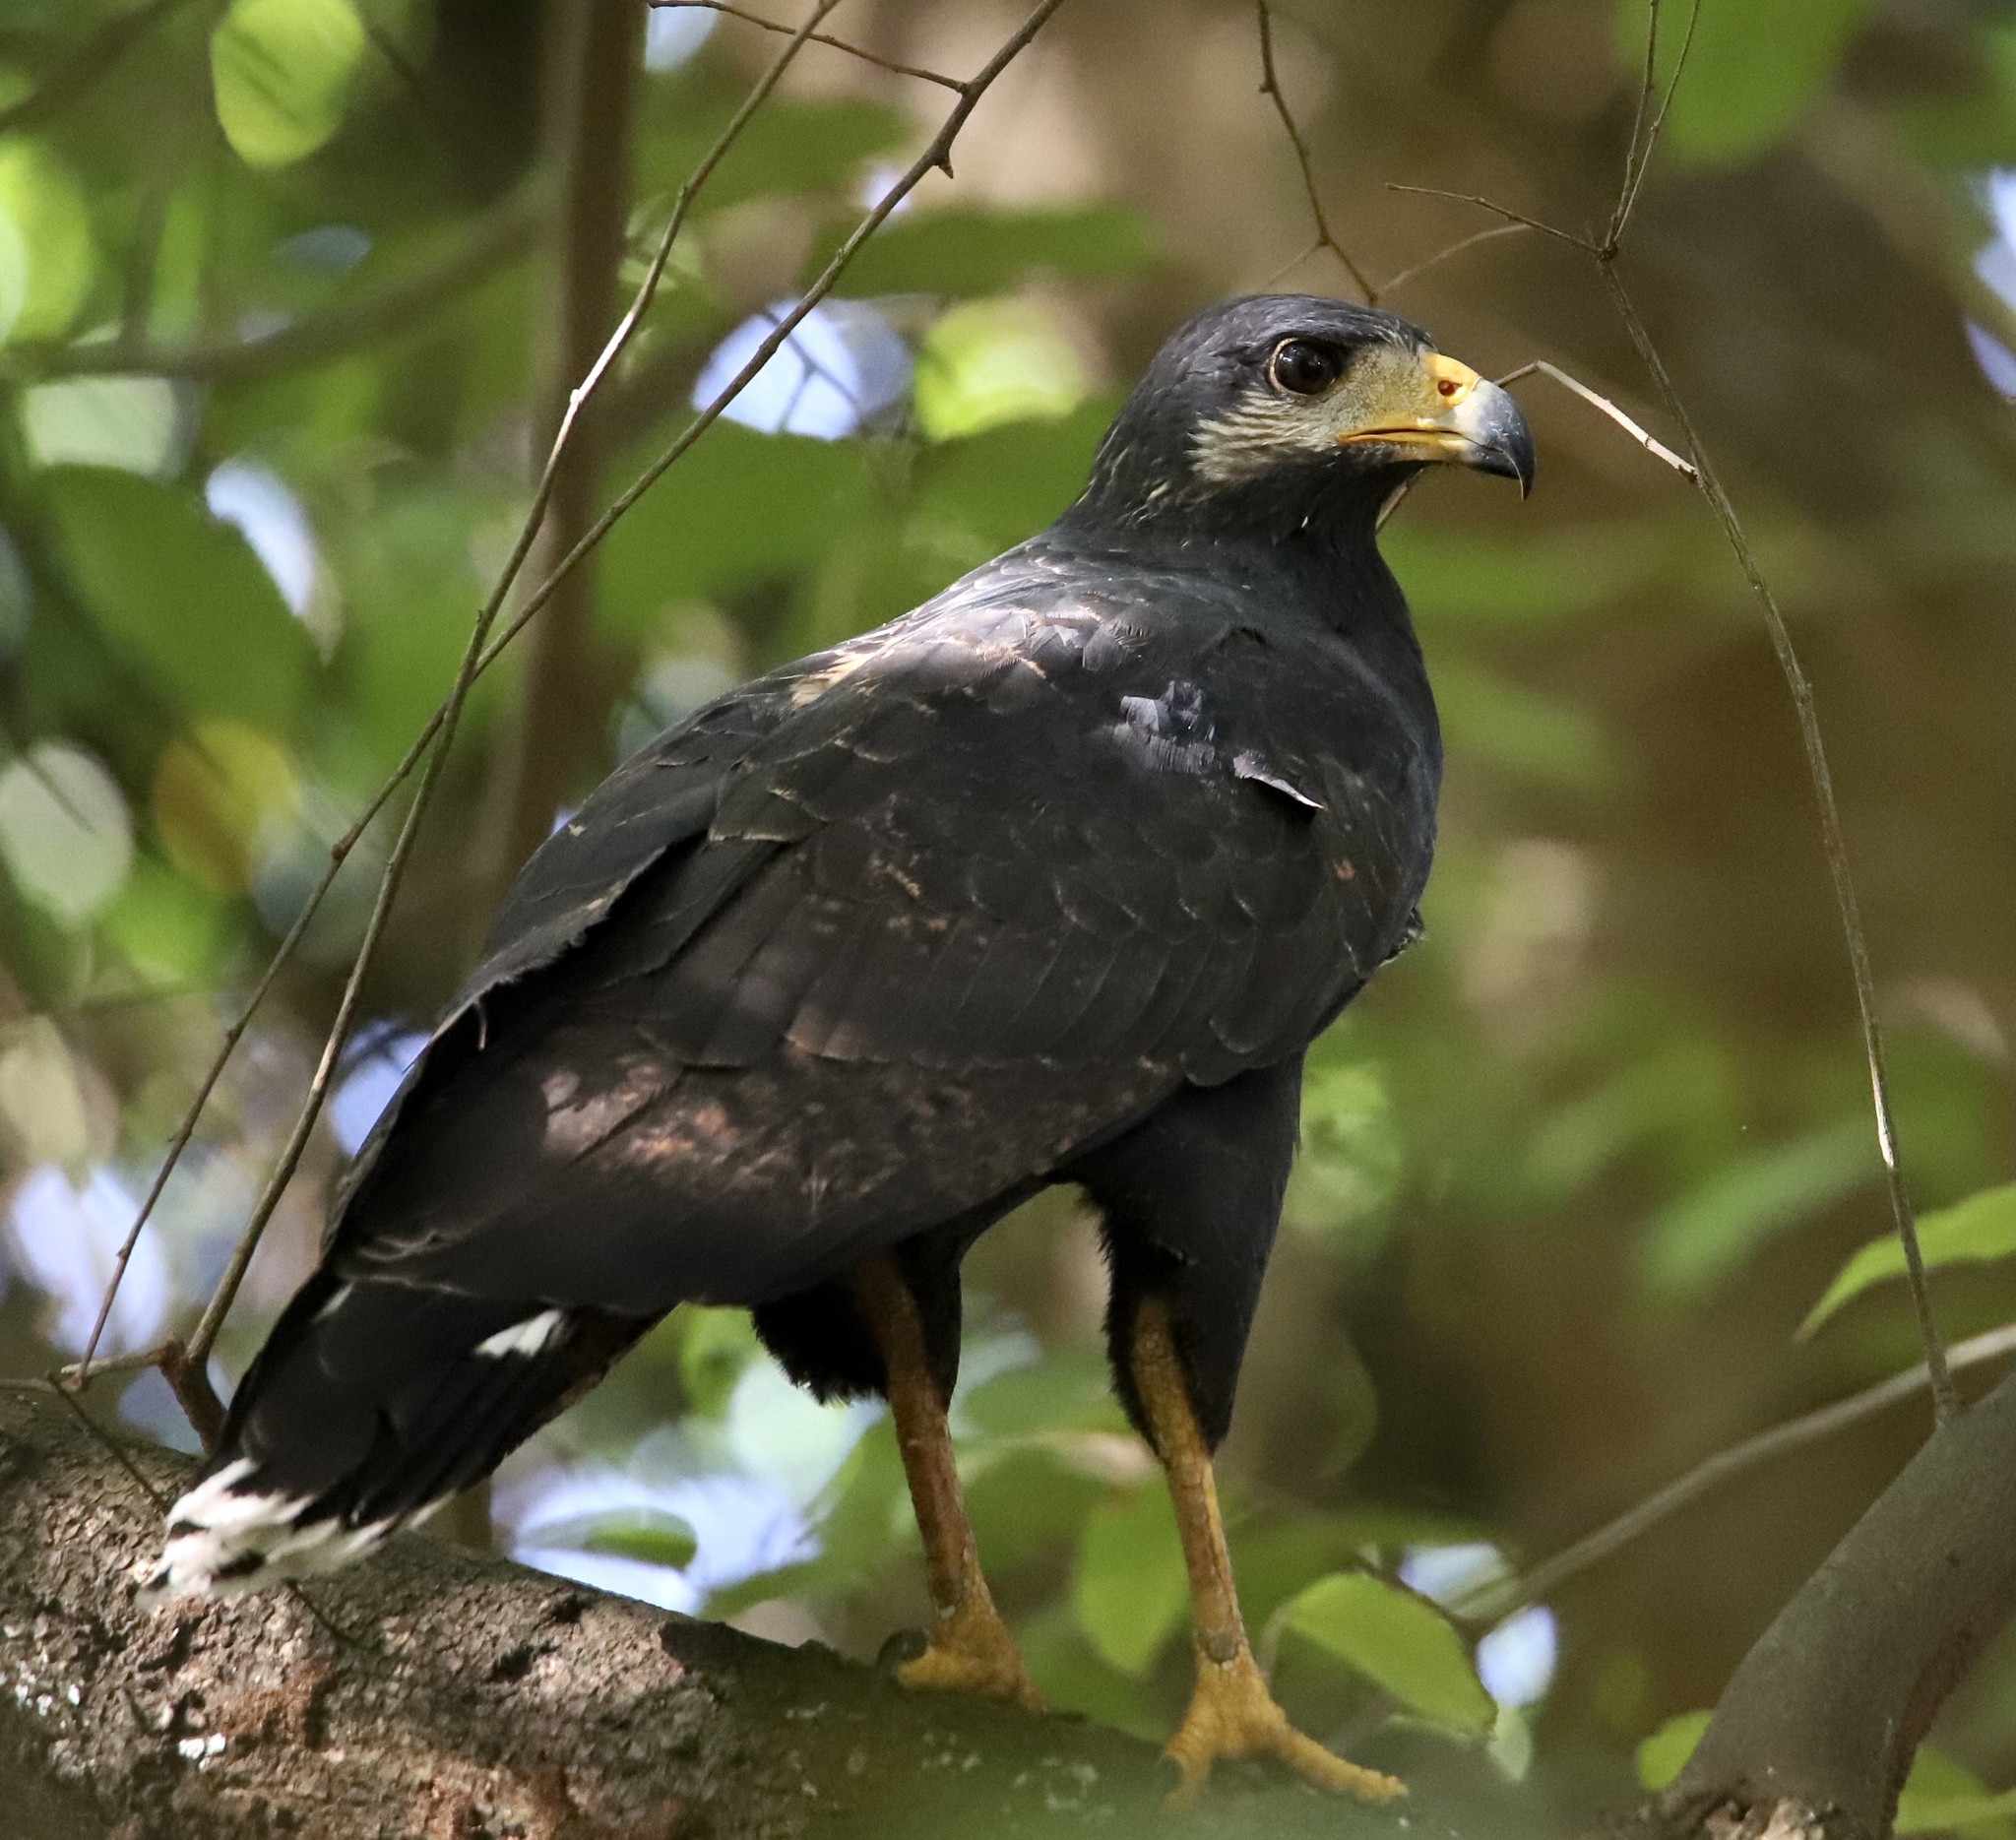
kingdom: Animalia
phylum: Chordata
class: Aves
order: Accipitriformes
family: Accipitridae
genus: Buteogallus
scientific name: Buteogallus anthracinus
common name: Common black hawk
